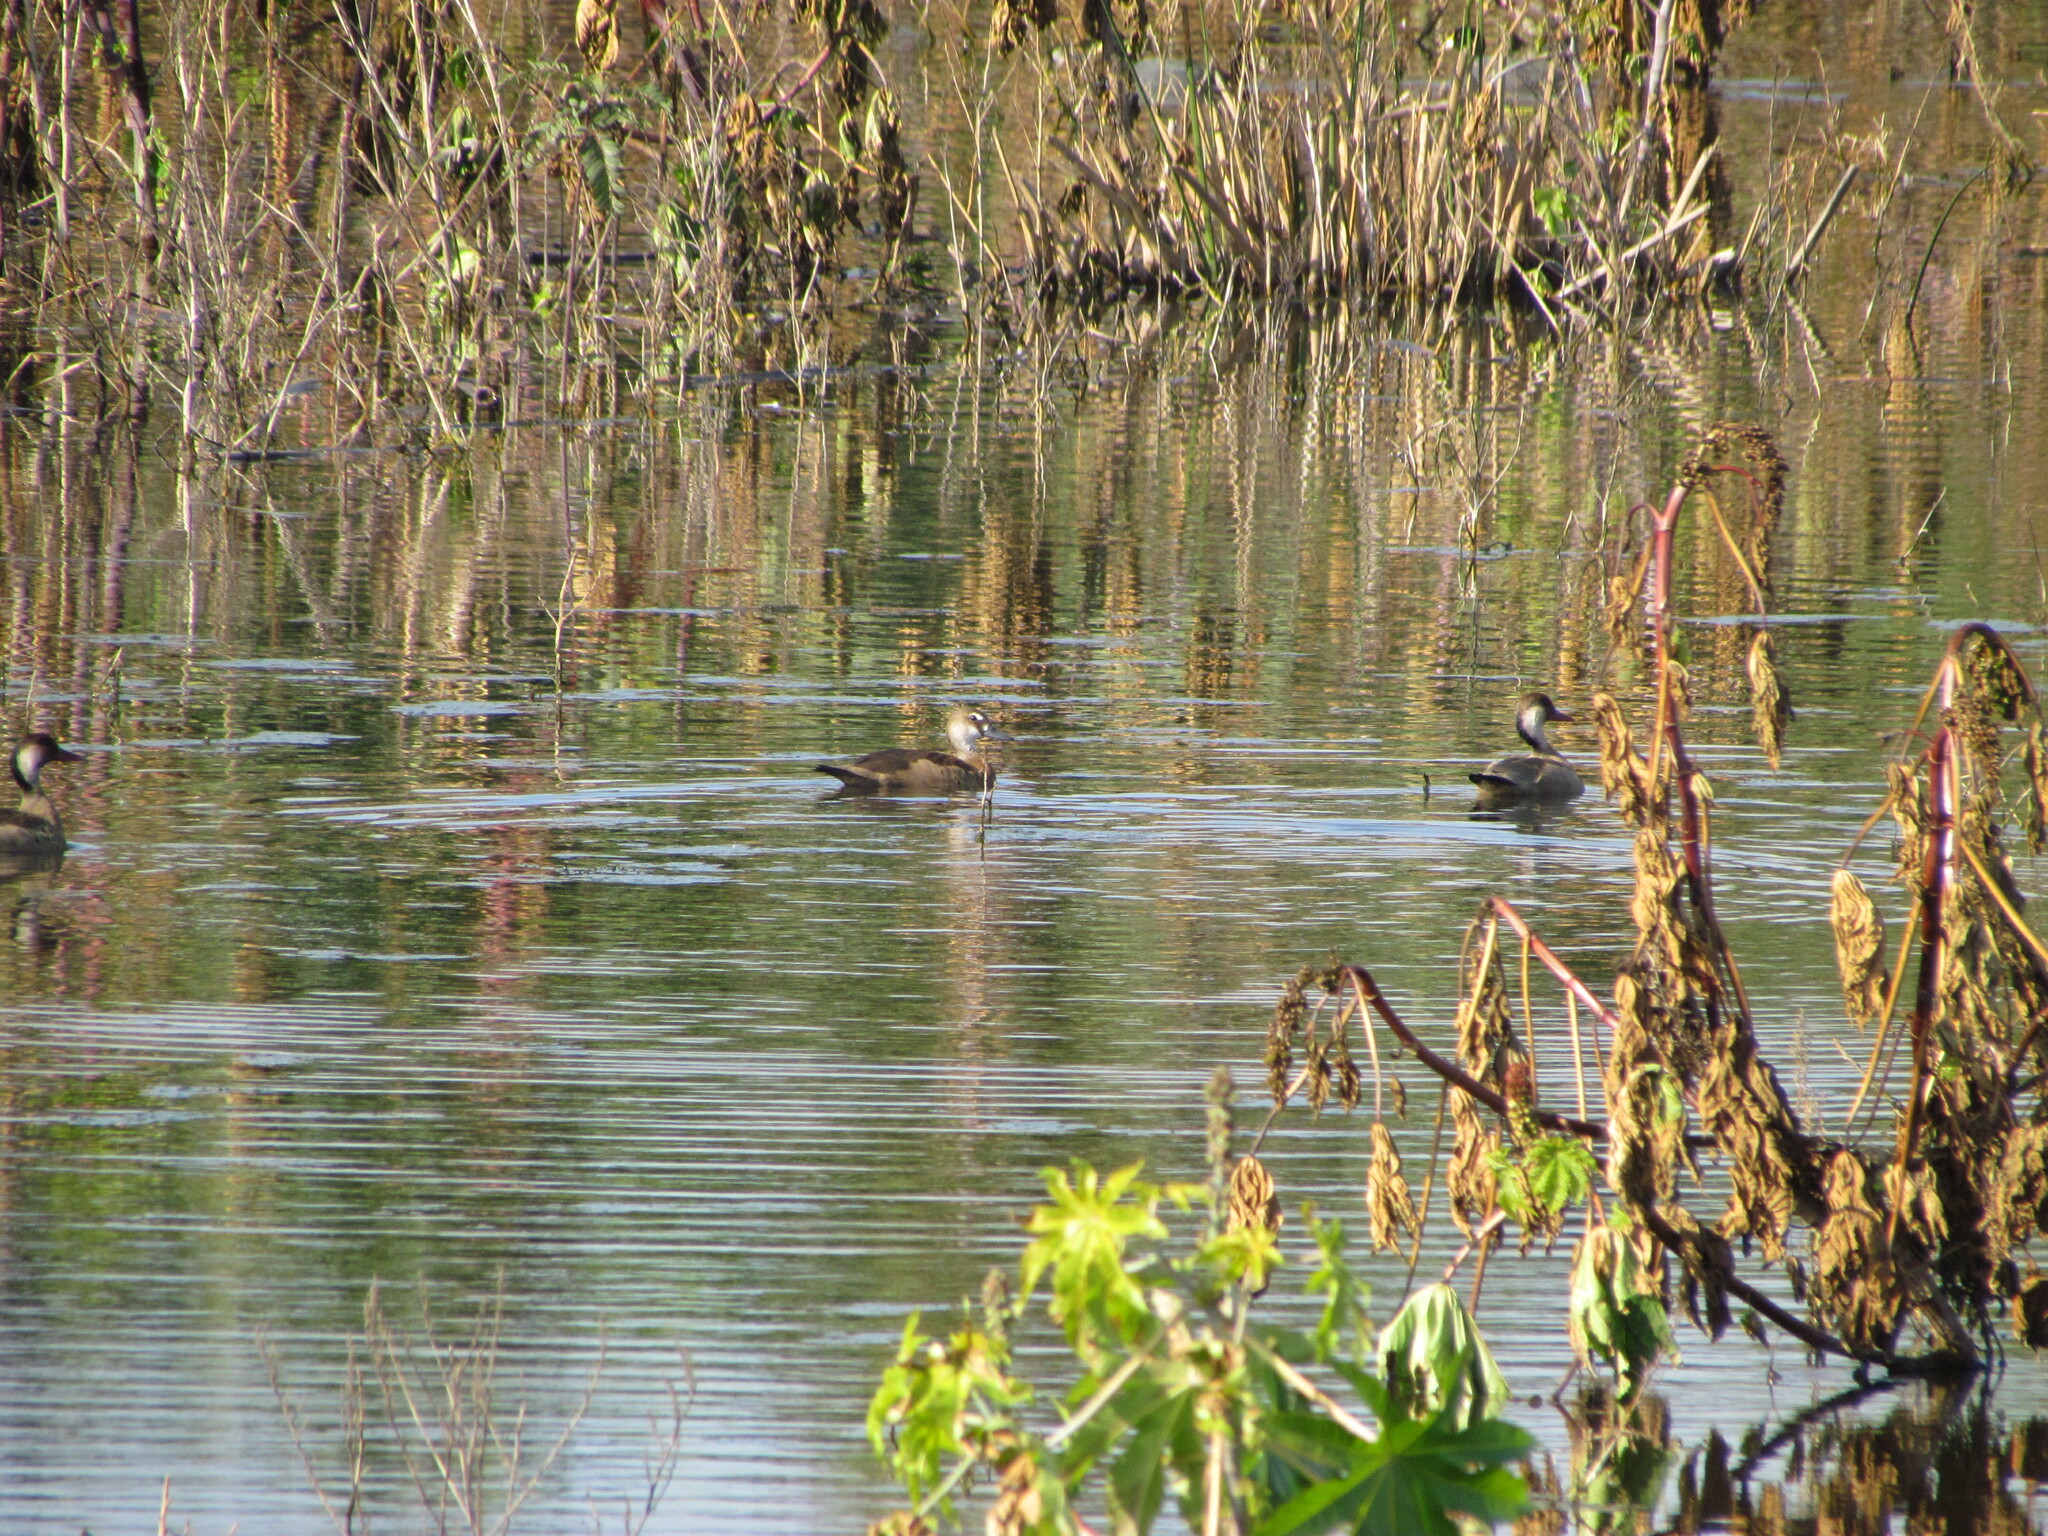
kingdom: Animalia
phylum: Chordata
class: Aves
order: Anseriformes
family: Anatidae
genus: Amazonetta
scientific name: Amazonetta brasiliensis
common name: Brazilian teal
